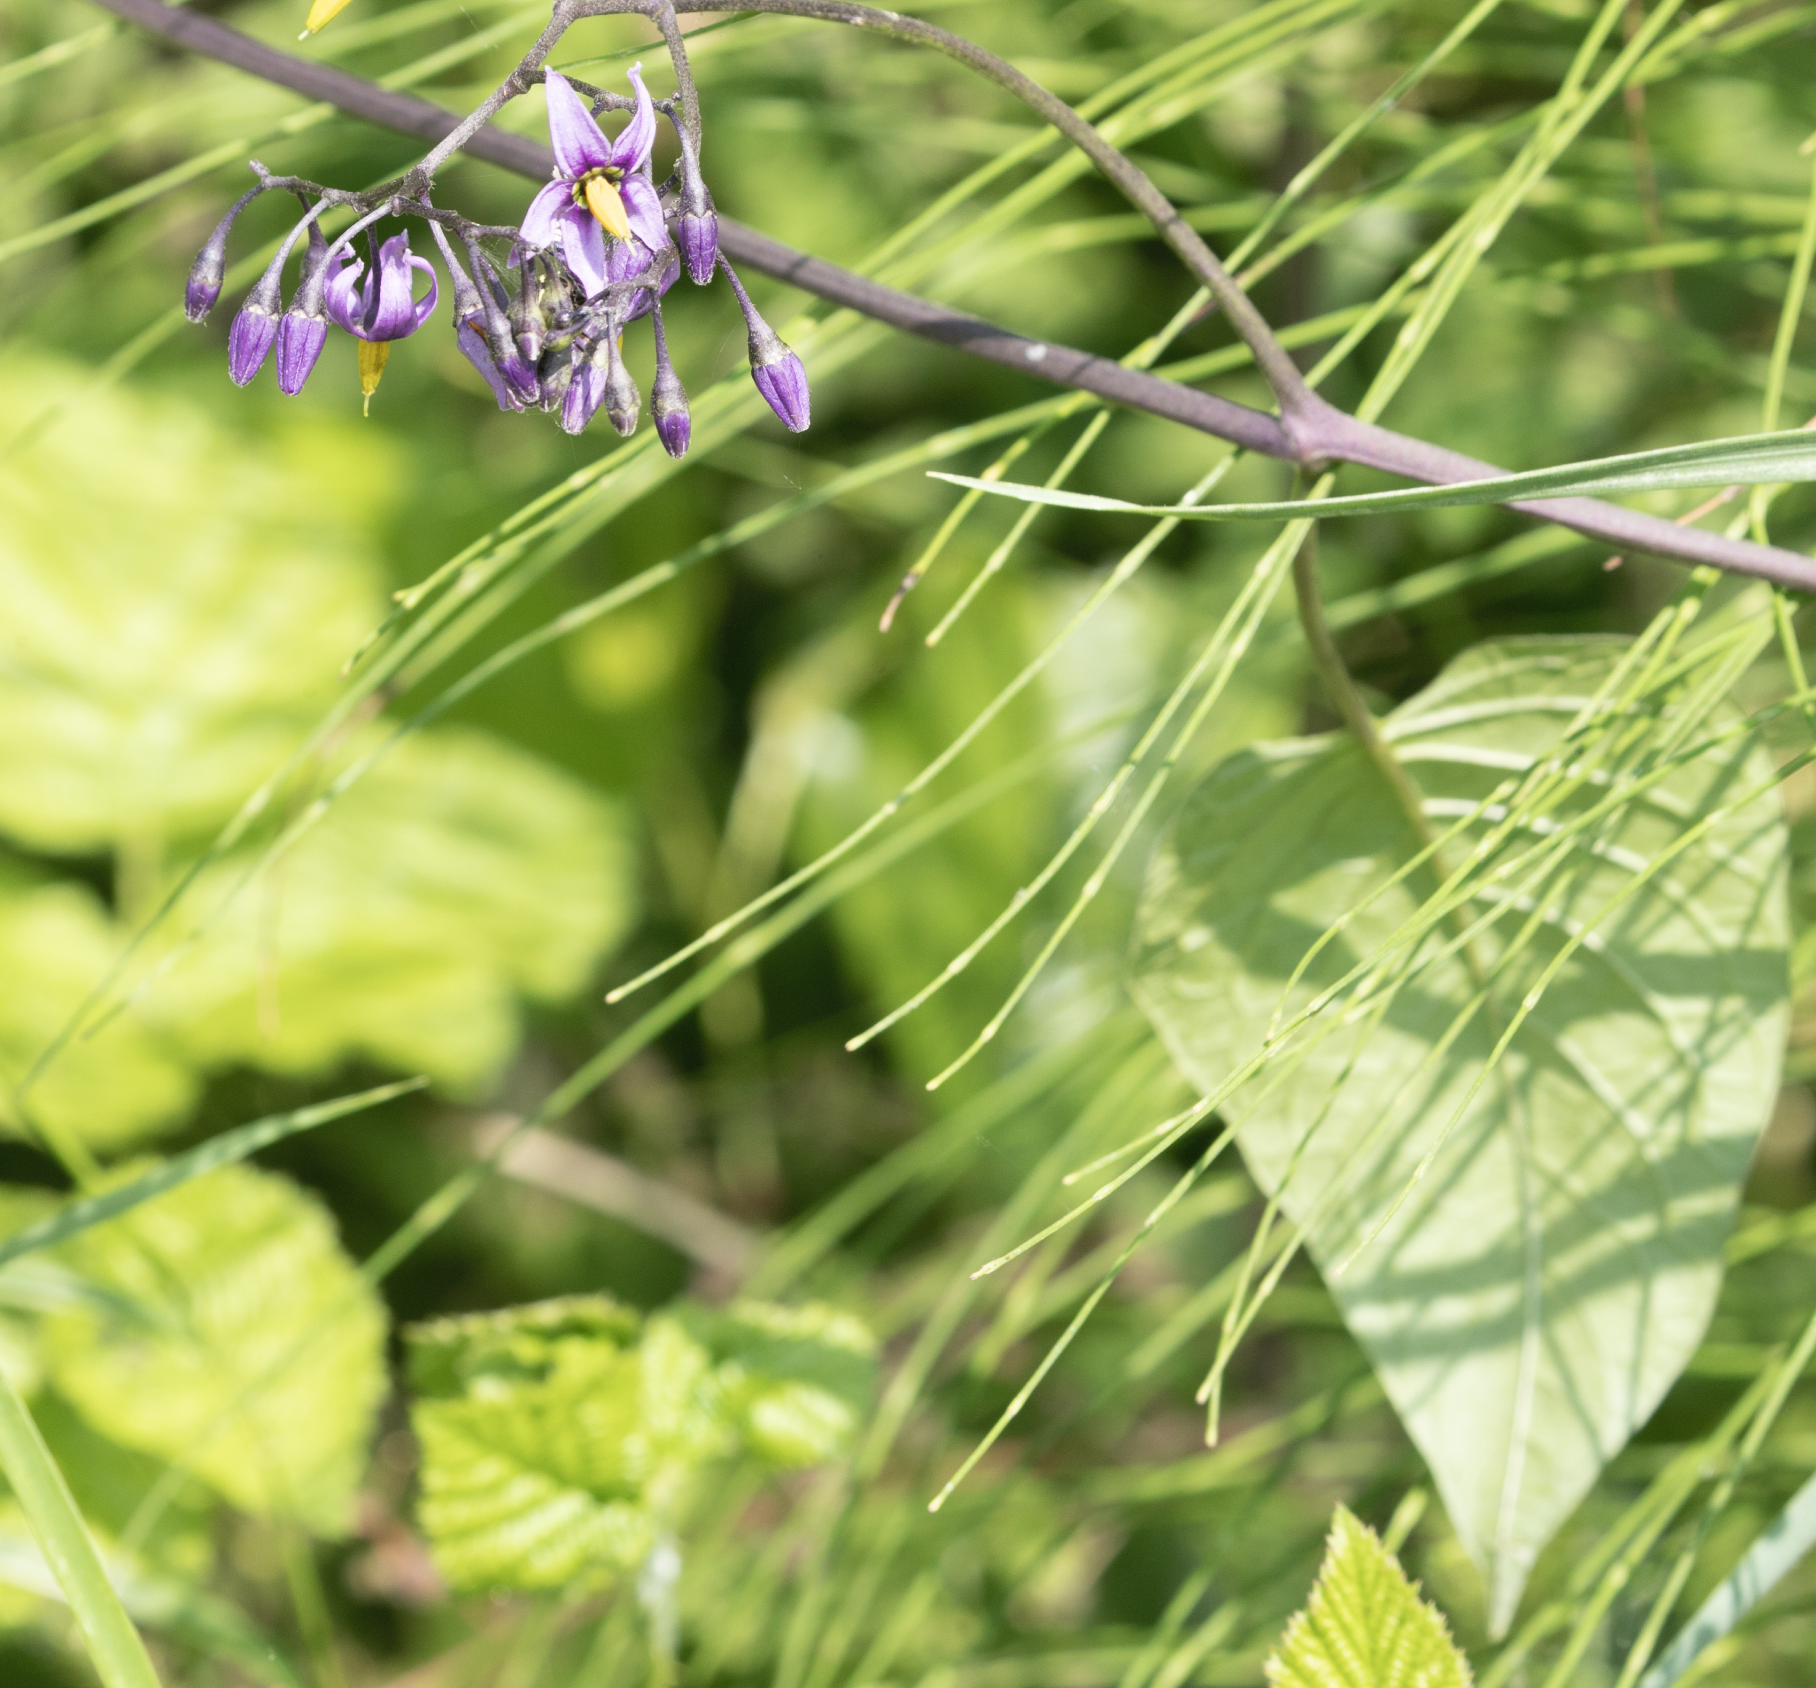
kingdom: Plantae
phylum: Tracheophyta
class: Magnoliopsida
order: Solanales
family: Solanaceae
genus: Solanum
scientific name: Solanum dulcamara
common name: Climbing nightshade
